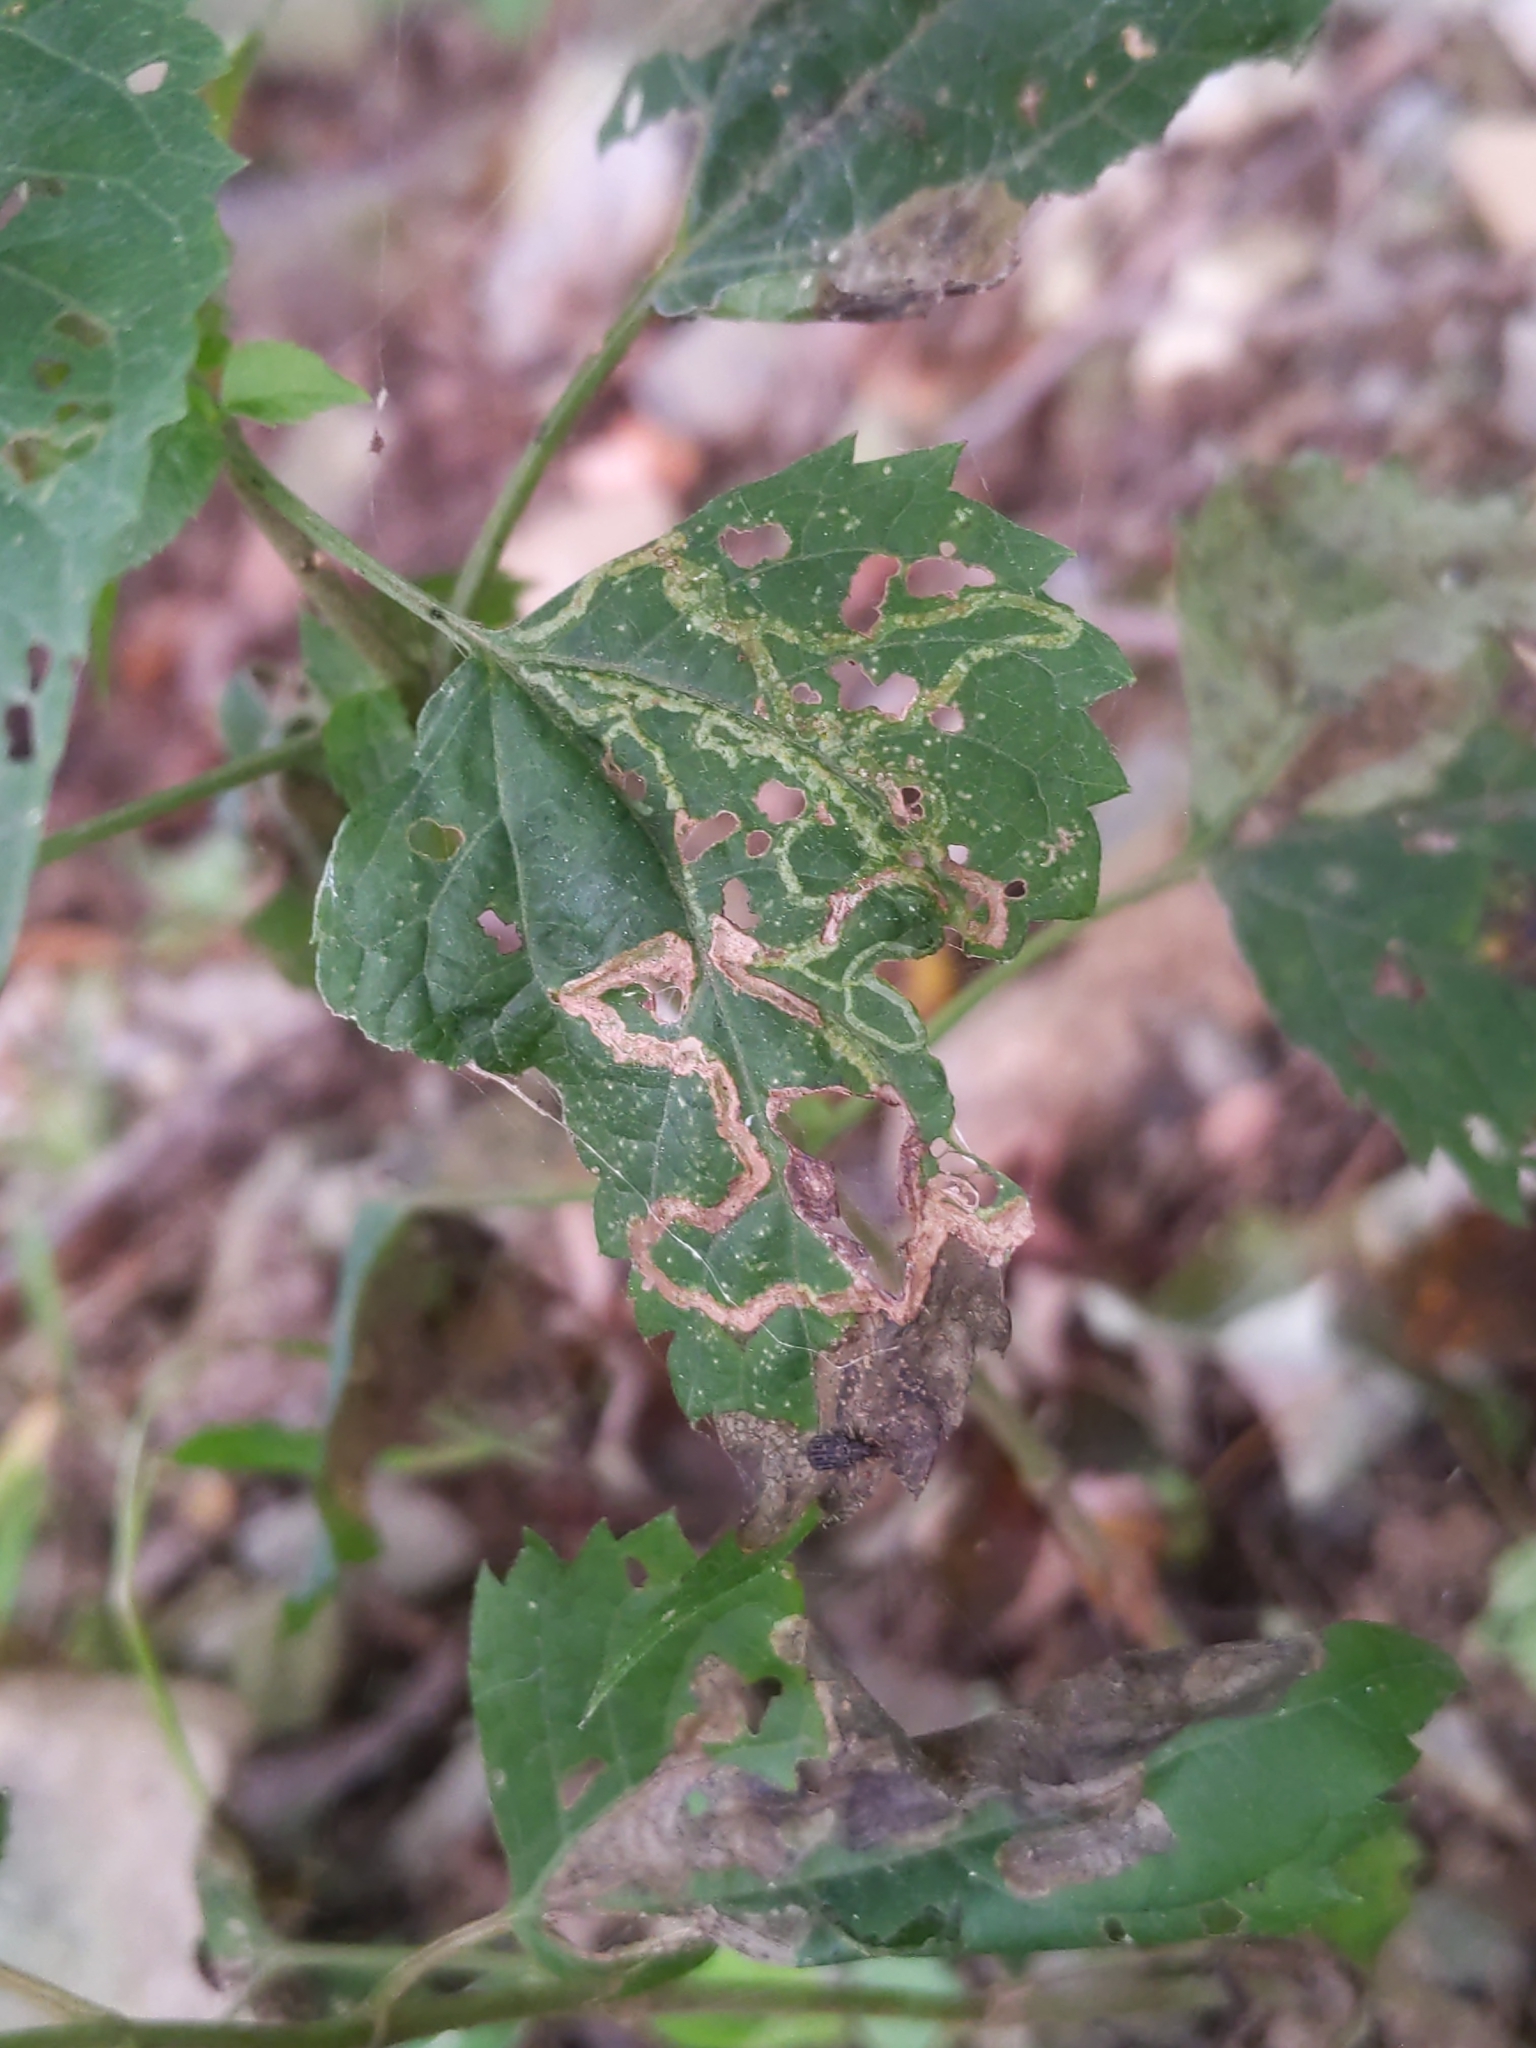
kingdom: Animalia
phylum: Arthropoda
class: Insecta
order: Diptera
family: Agromyzidae
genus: Liriomyza
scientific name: Liriomyza
